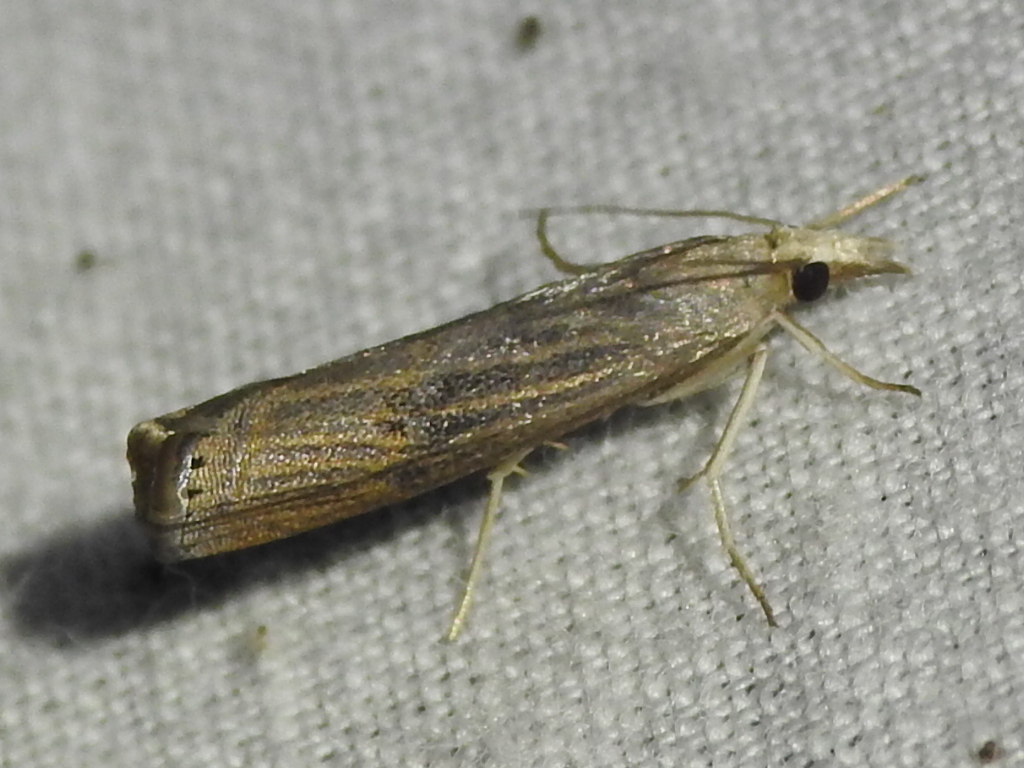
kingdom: Animalia
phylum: Arthropoda
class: Insecta
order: Lepidoptera
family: Crambidae
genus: Parapediasia
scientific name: Parapediasia teterellus
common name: Bluegrass webworm moth
